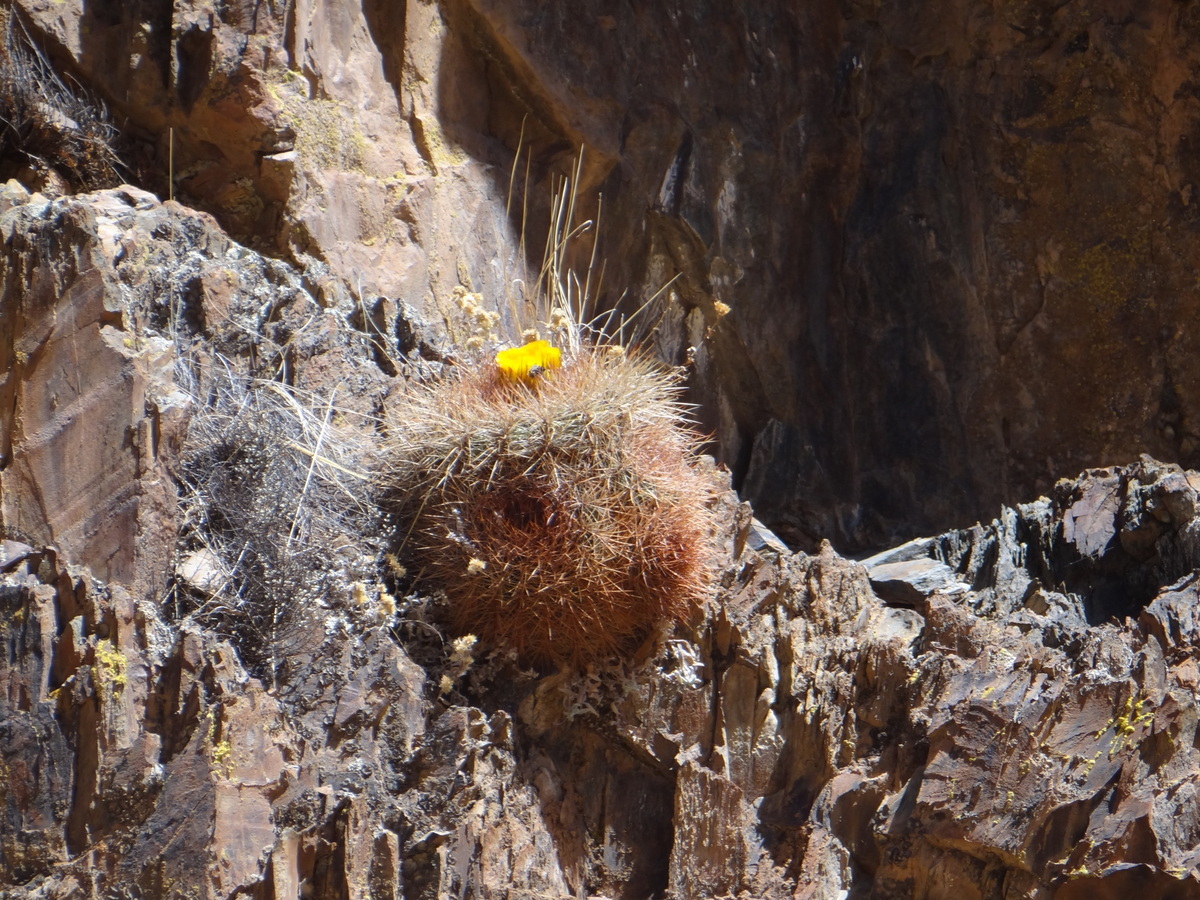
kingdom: Plantae
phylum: Tracheophyta
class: Magnoliopsida
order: Caryophyllales
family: Cactaceae
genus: Soehrensia
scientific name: Soehrensia formosa
